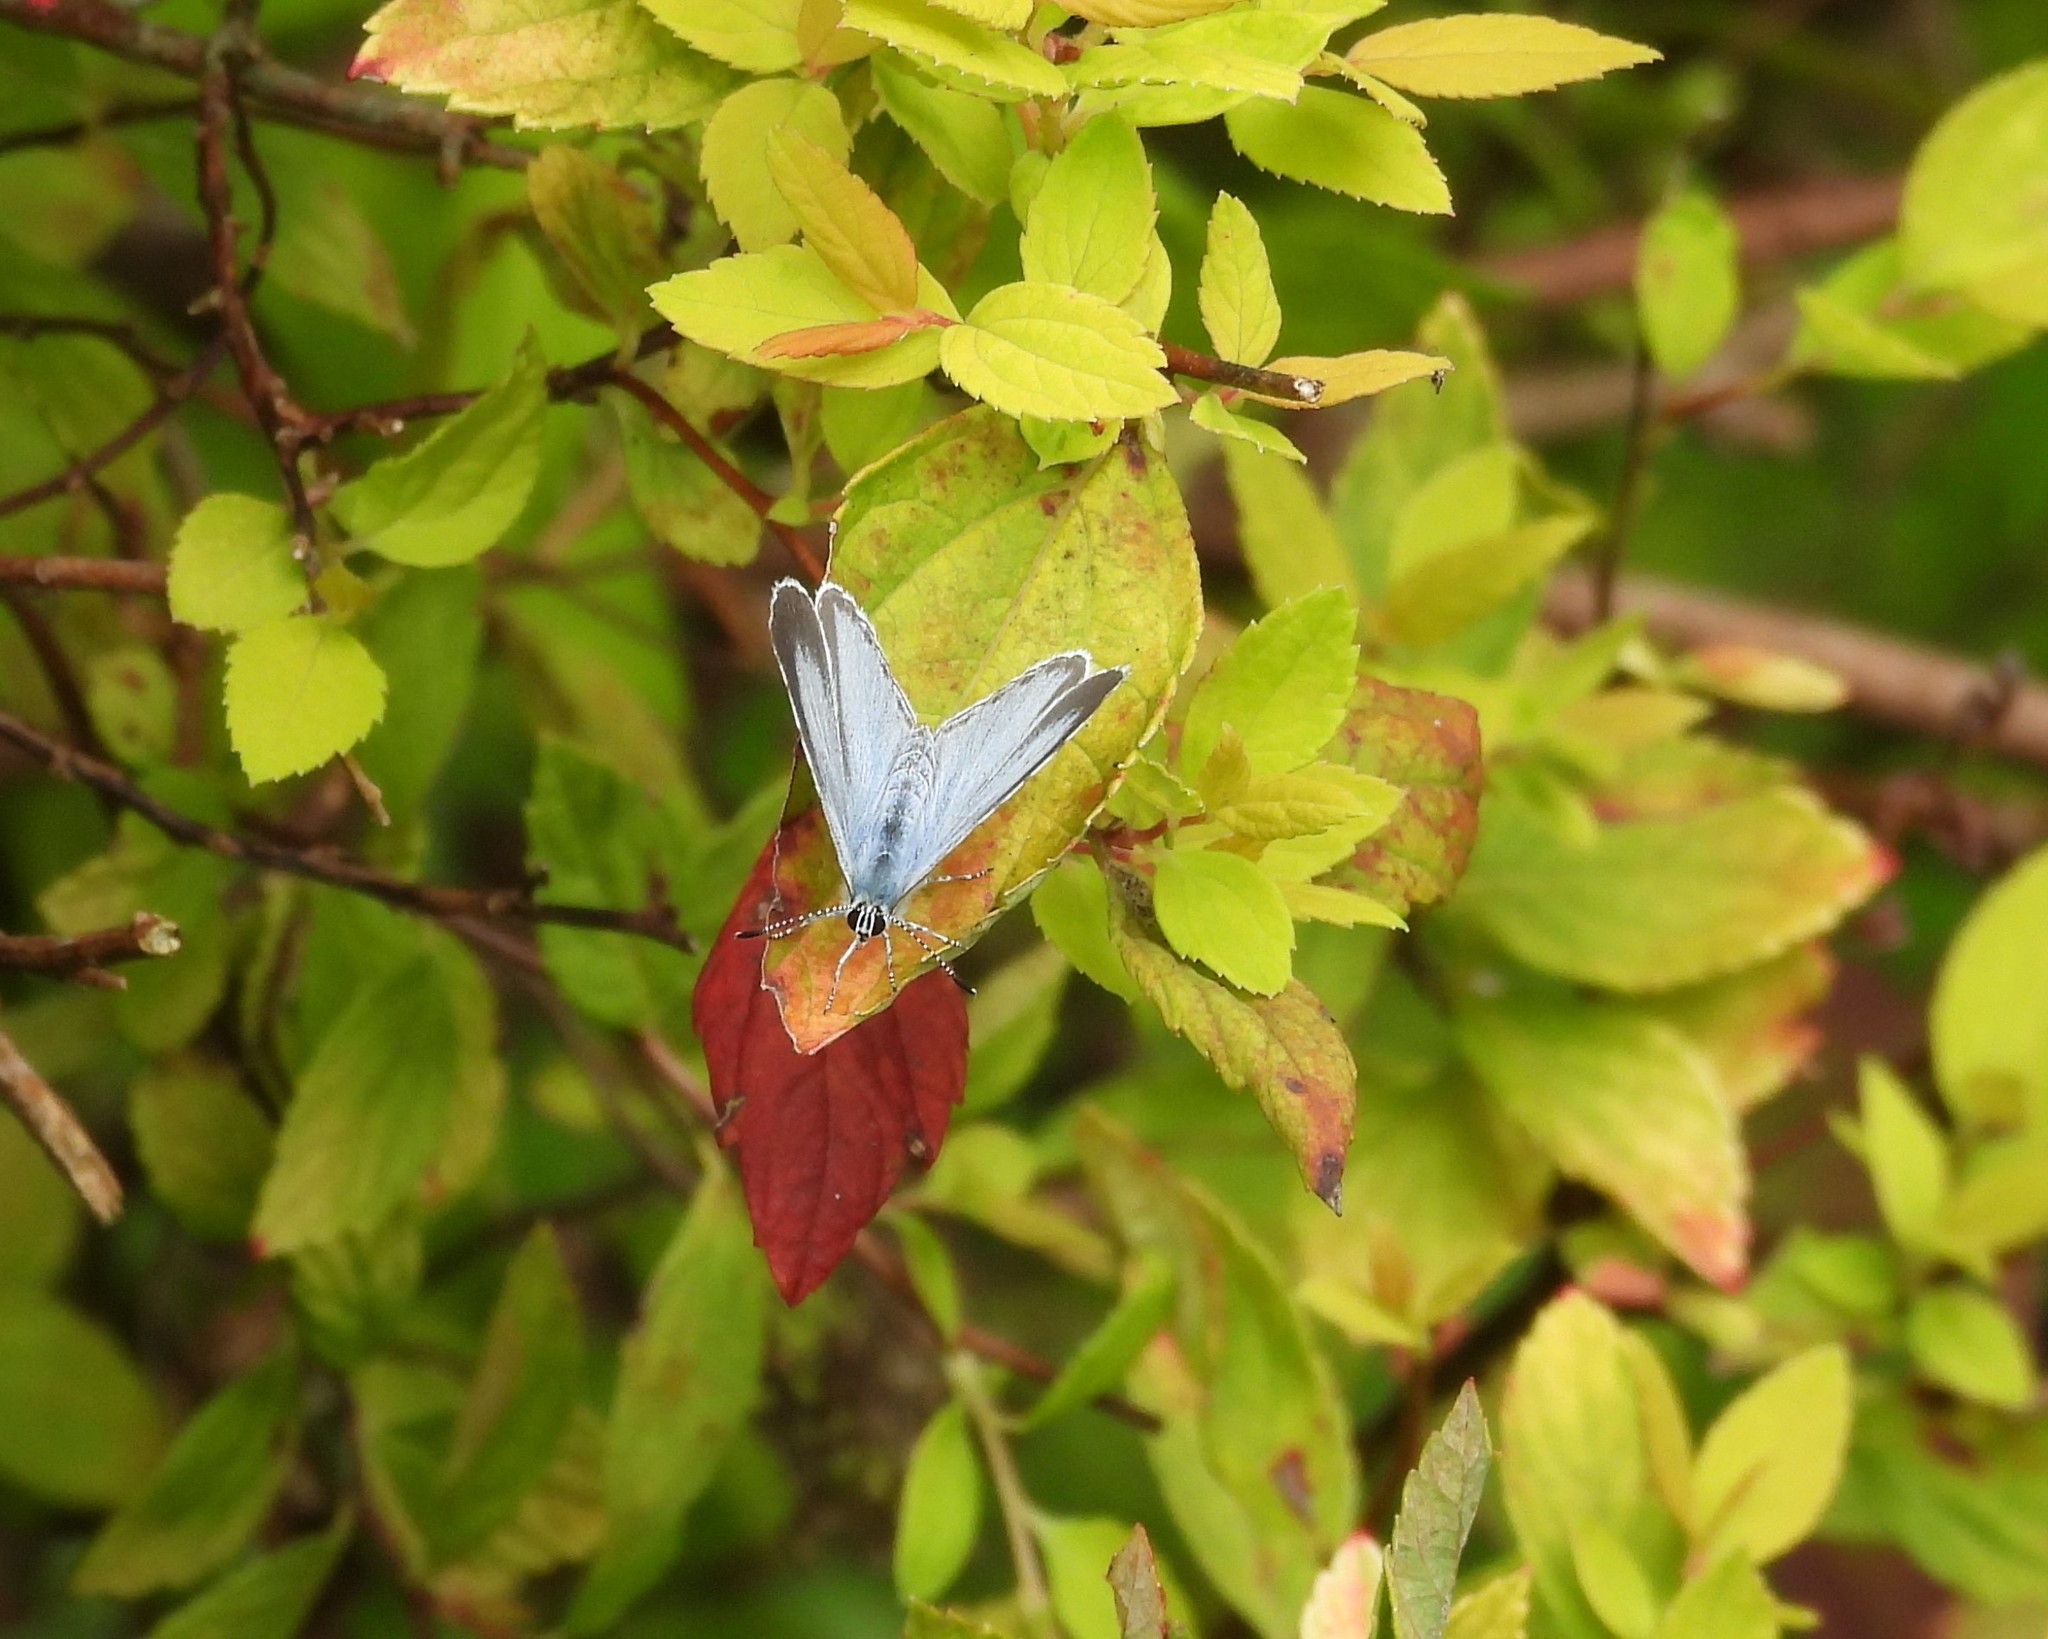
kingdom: Animalia
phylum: Arthropoda
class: Insecta
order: Lepidoptera
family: Lycaenidae
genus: Celastrina
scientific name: Celastrina argiolus
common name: Holly blue
